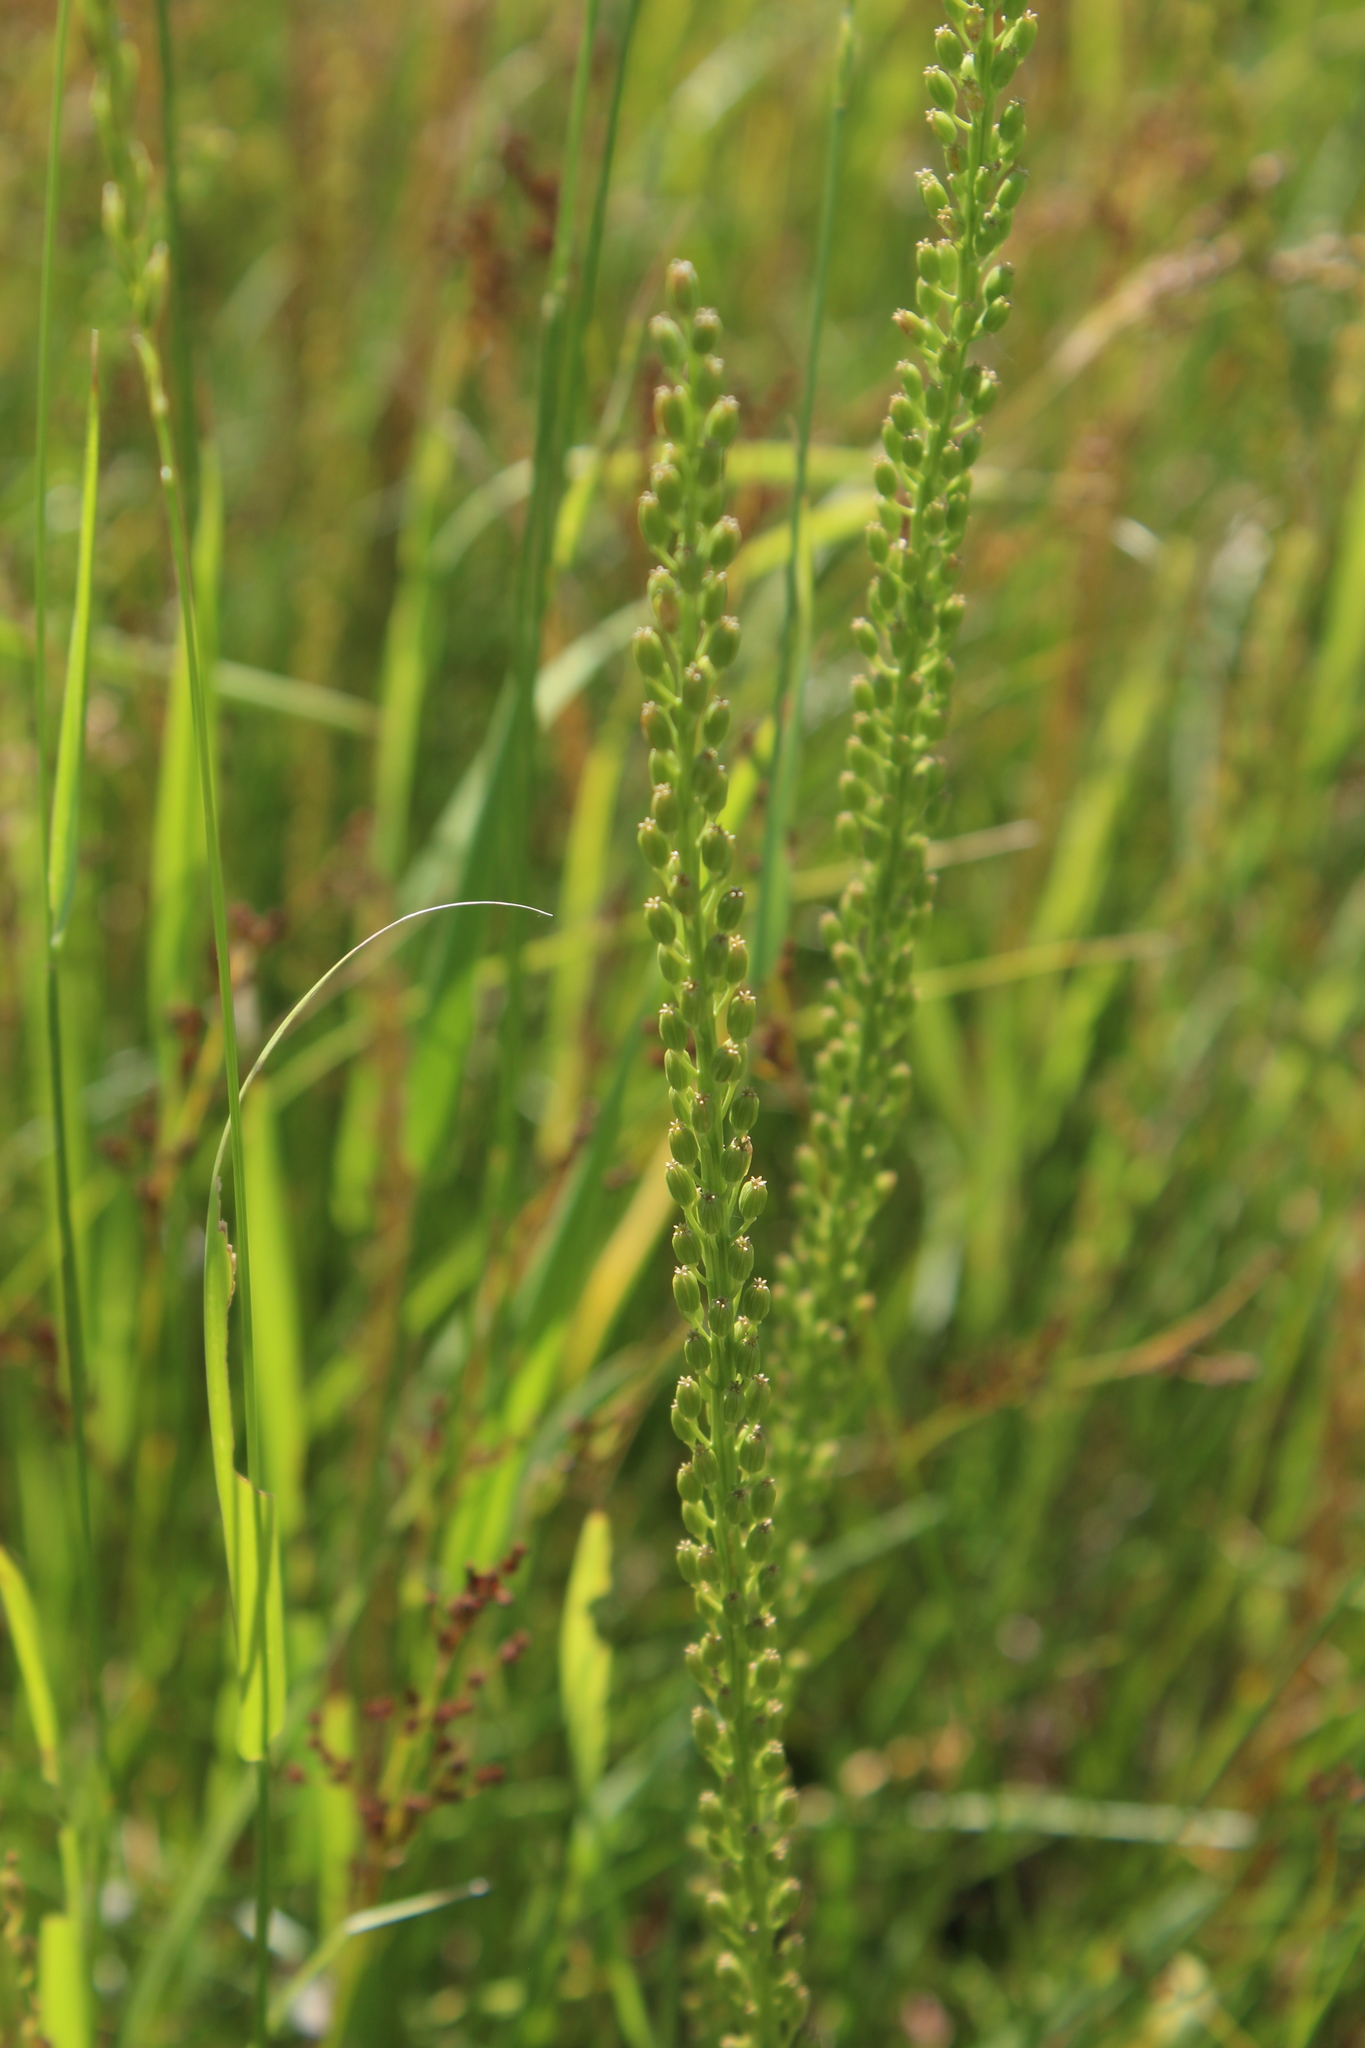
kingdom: Plantae
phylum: Tracheophyta
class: Liliopsida
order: Alismatales
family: Juncaginaceae
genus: Triglochin
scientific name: Triglochin maritima
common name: Sea arrowgrass
